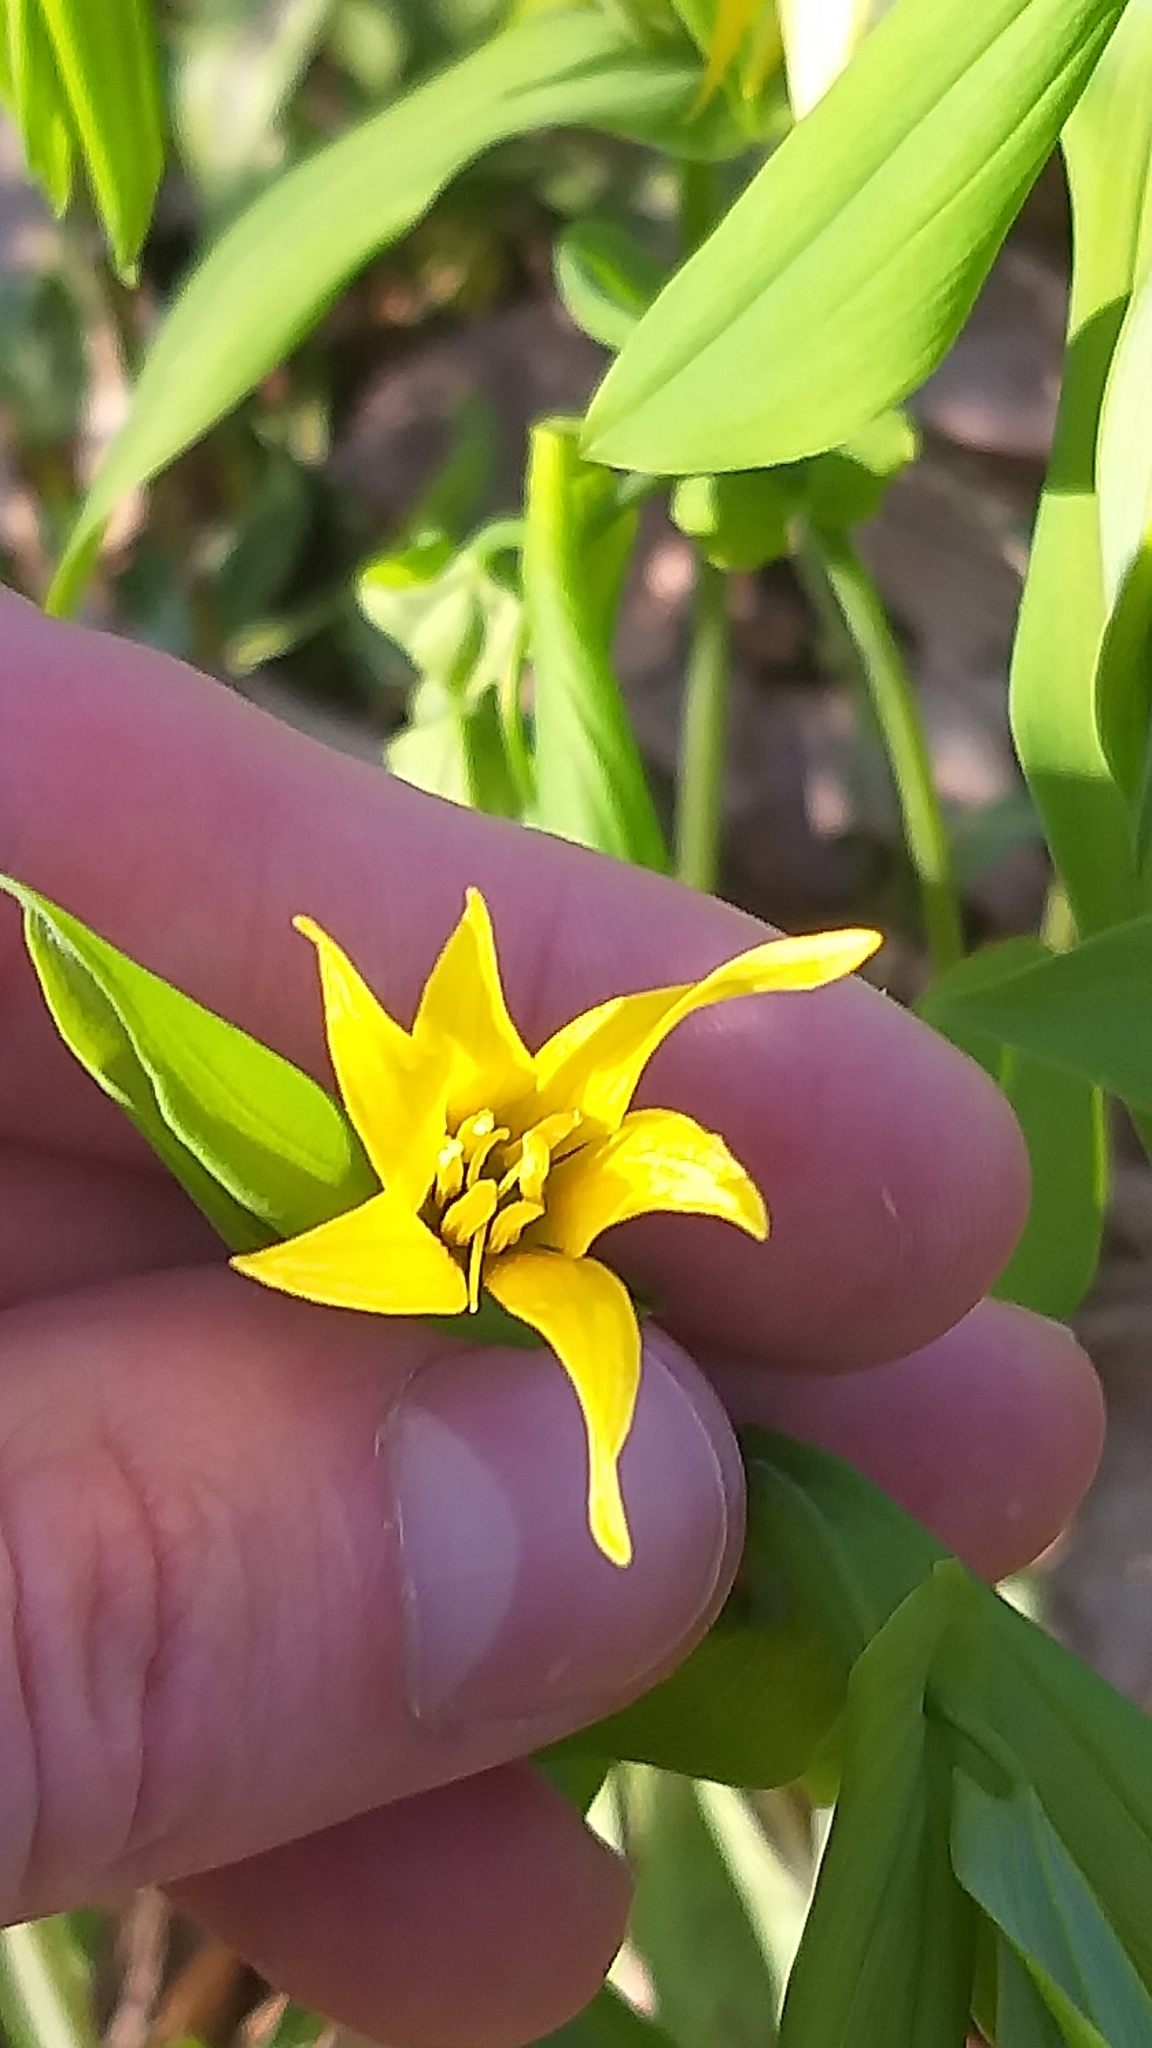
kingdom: Plantae
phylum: Tracheophyta
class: Liliopsida
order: Liliales
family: Colchicaceae
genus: Uvularia
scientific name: Uvularia grandiflora
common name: Bellwort
